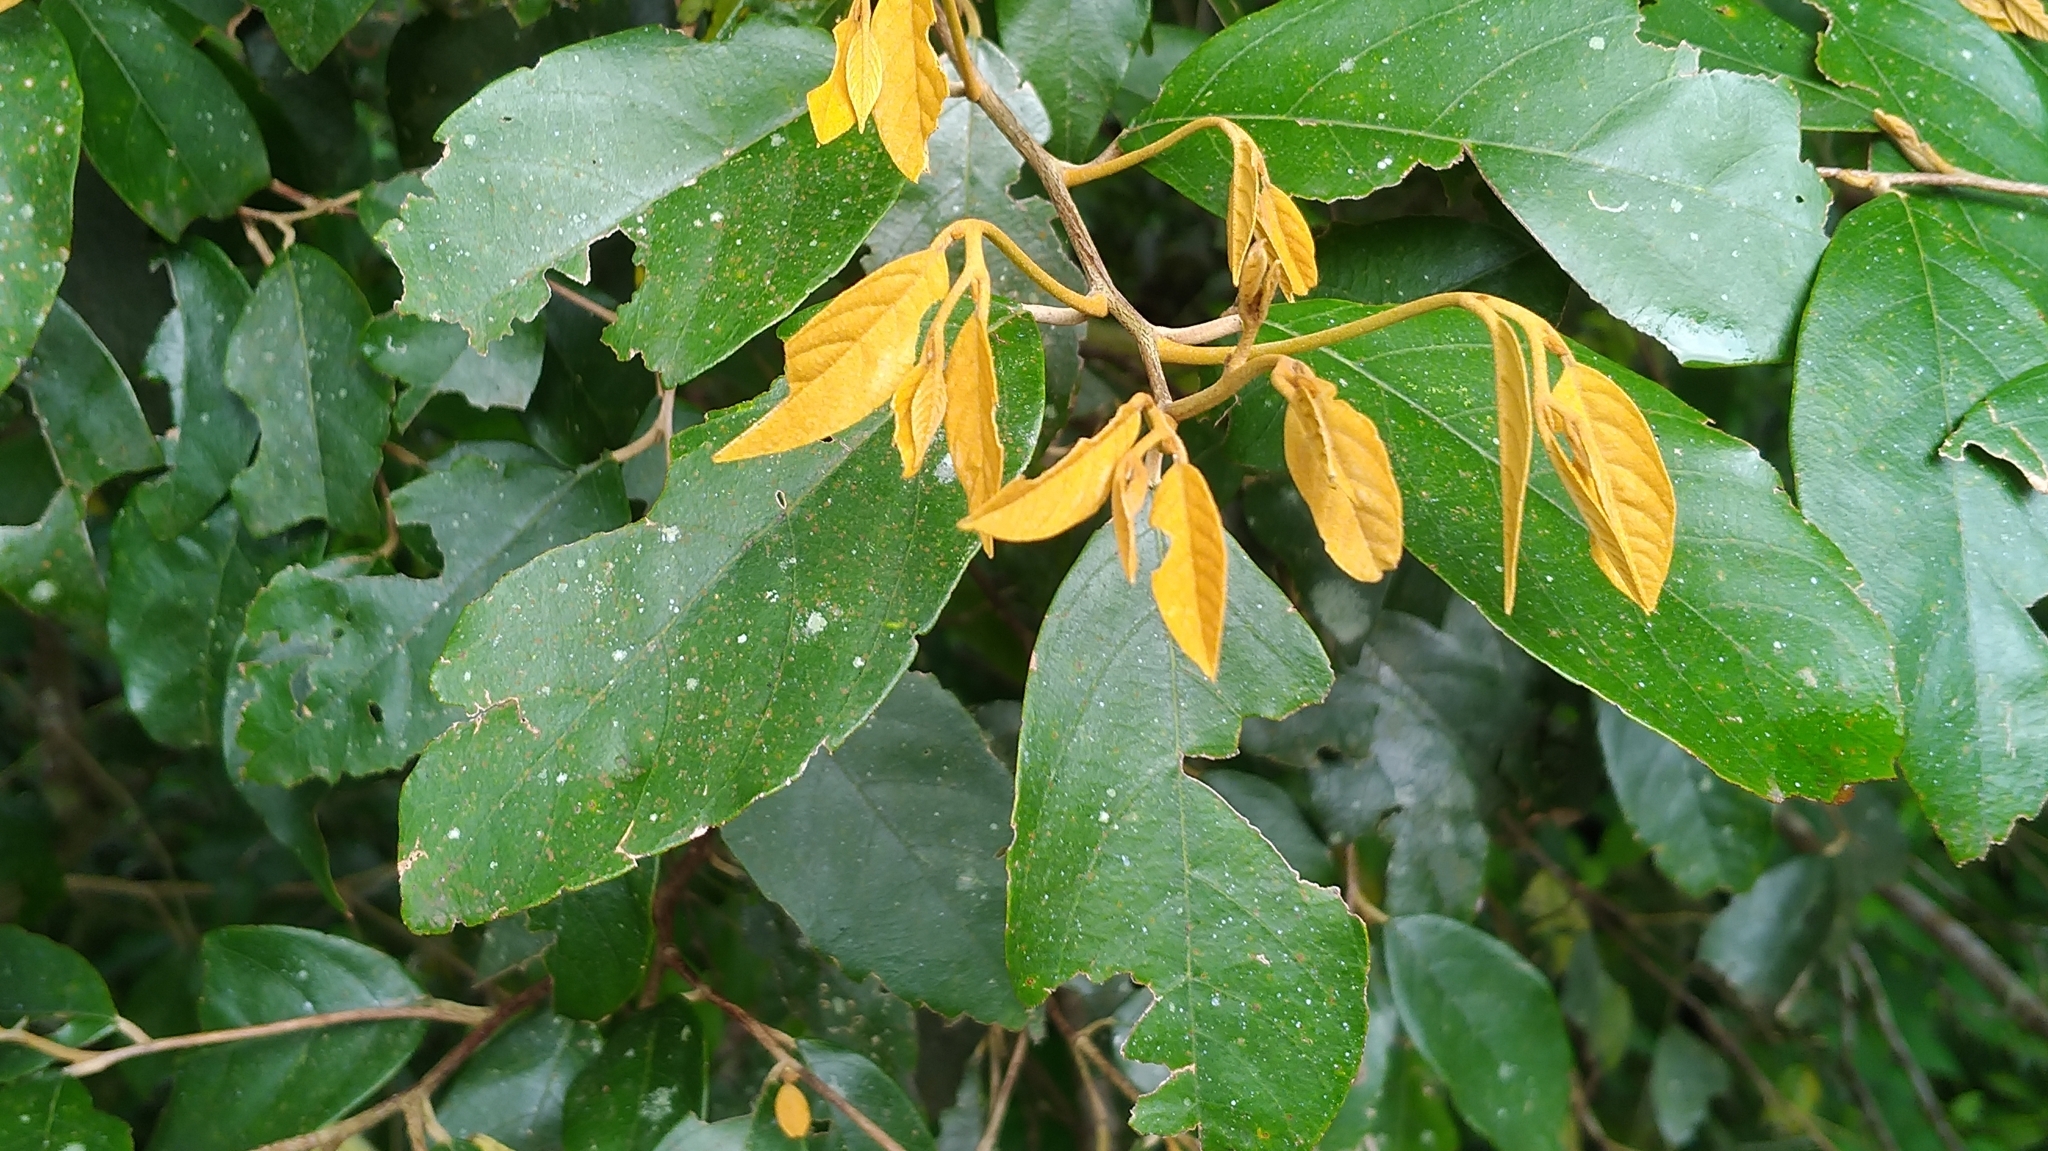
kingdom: Plantae
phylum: Tracheophyta
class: Magnoliopsida
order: Ericales
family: Styracaceae
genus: Styrax
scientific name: Styrax suberifolius
